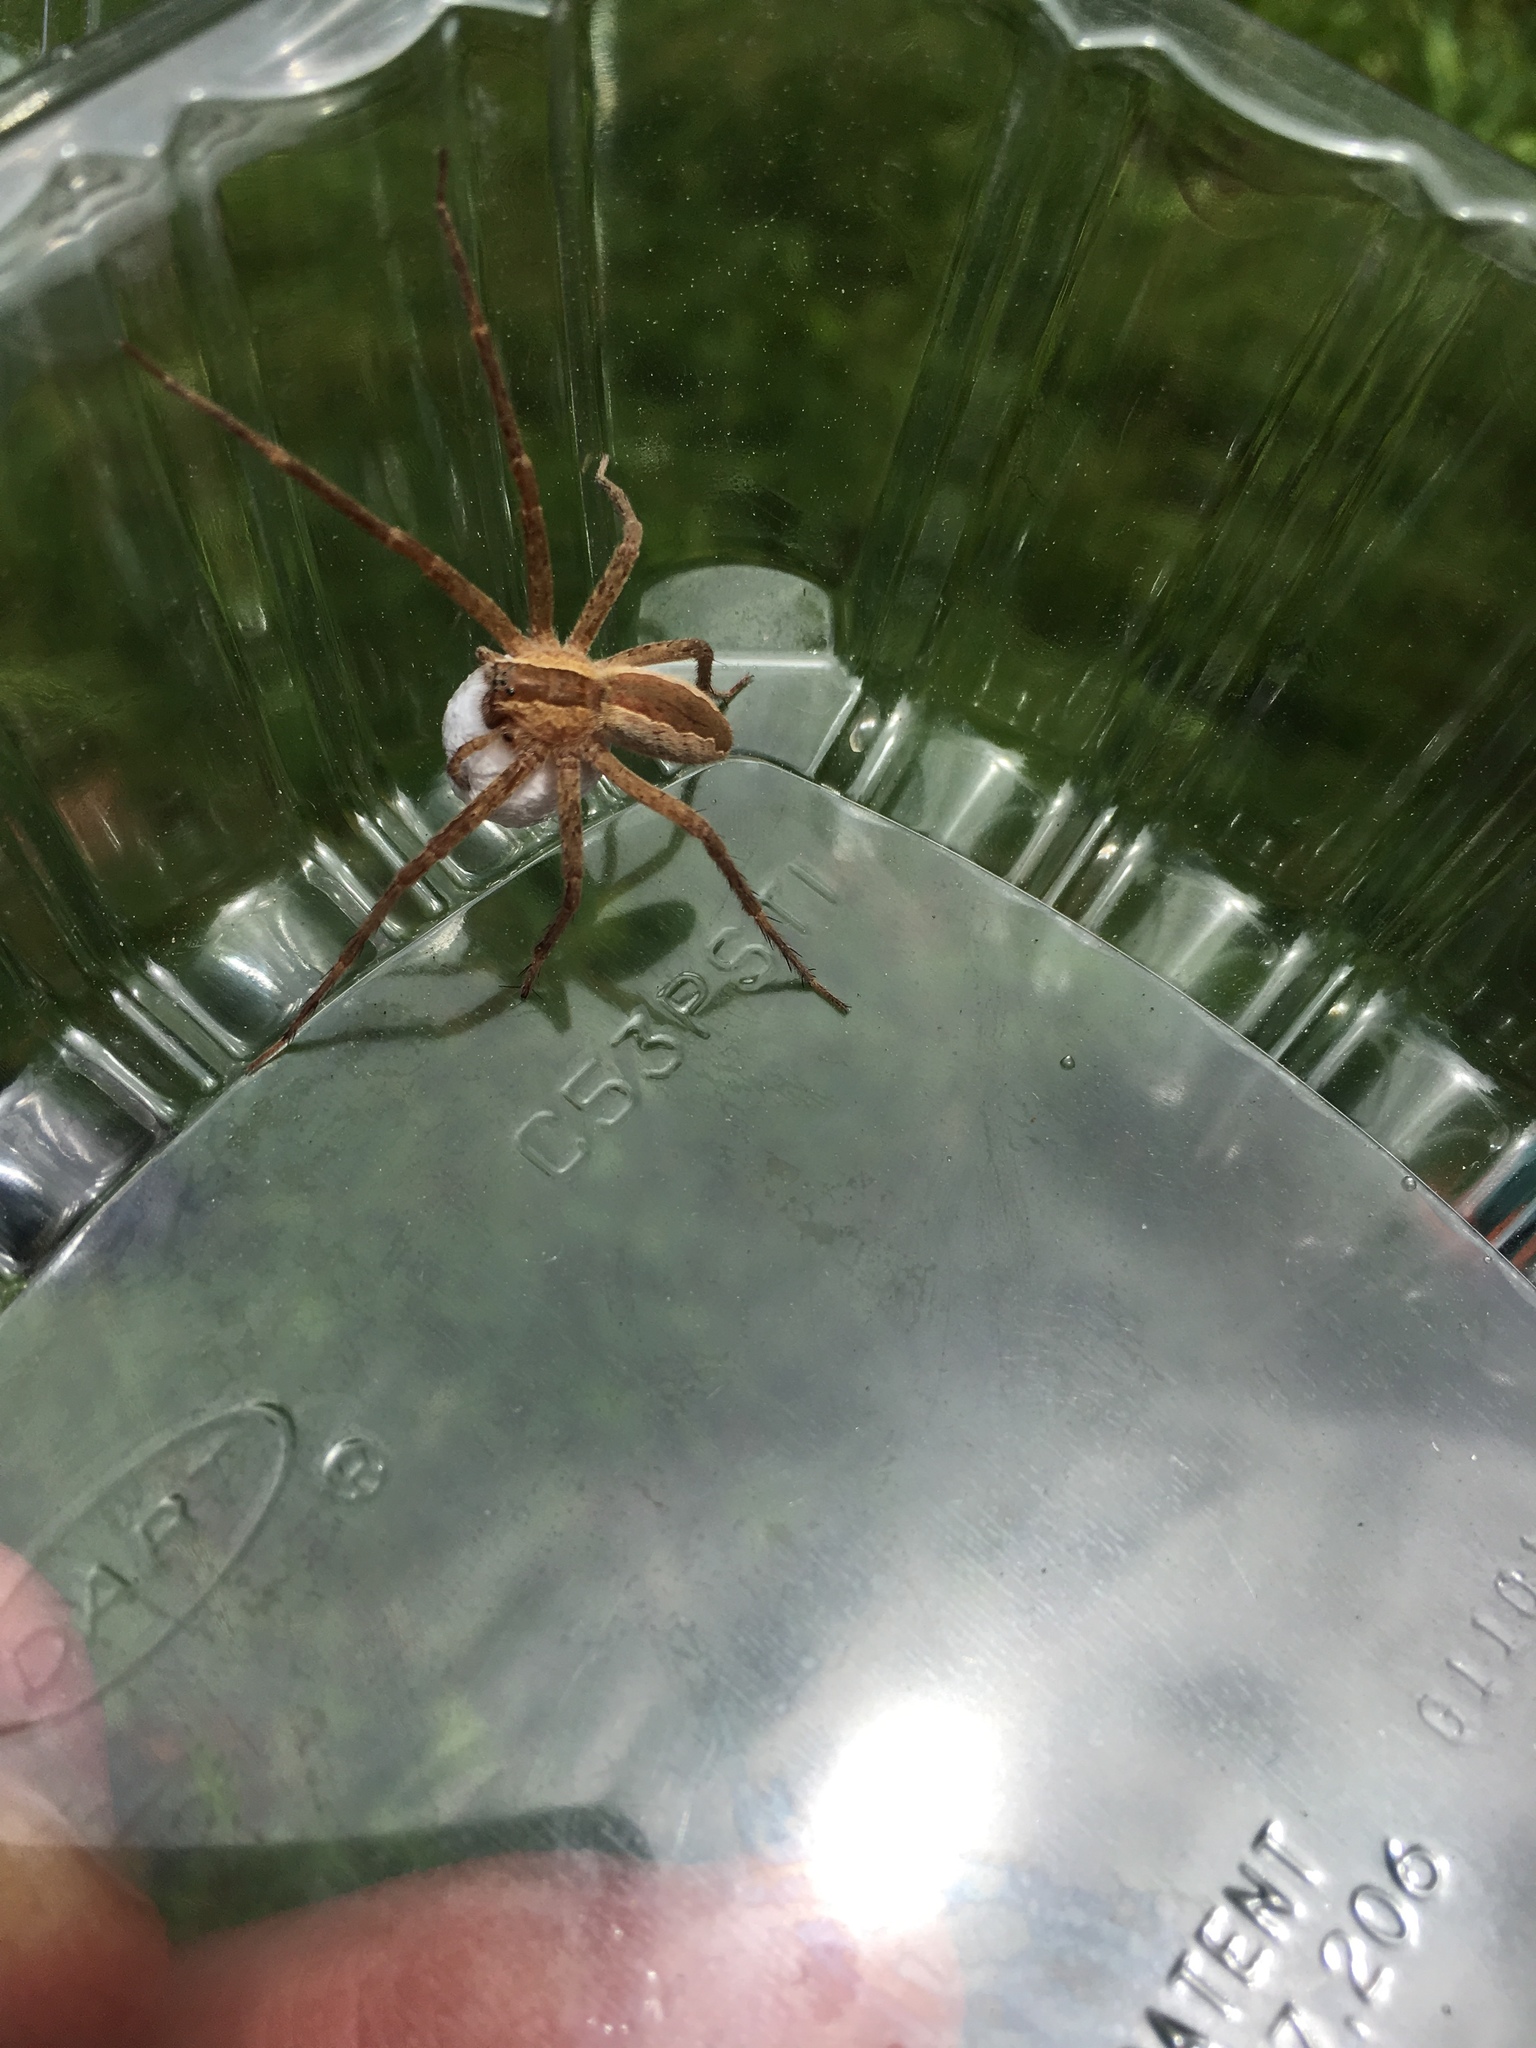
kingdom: Animalia
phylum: Arthropoda
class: Arachnida
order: Araneae
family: Pisauridae
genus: Pisaurina
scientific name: Pisaurina mira
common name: American nursery web spider
